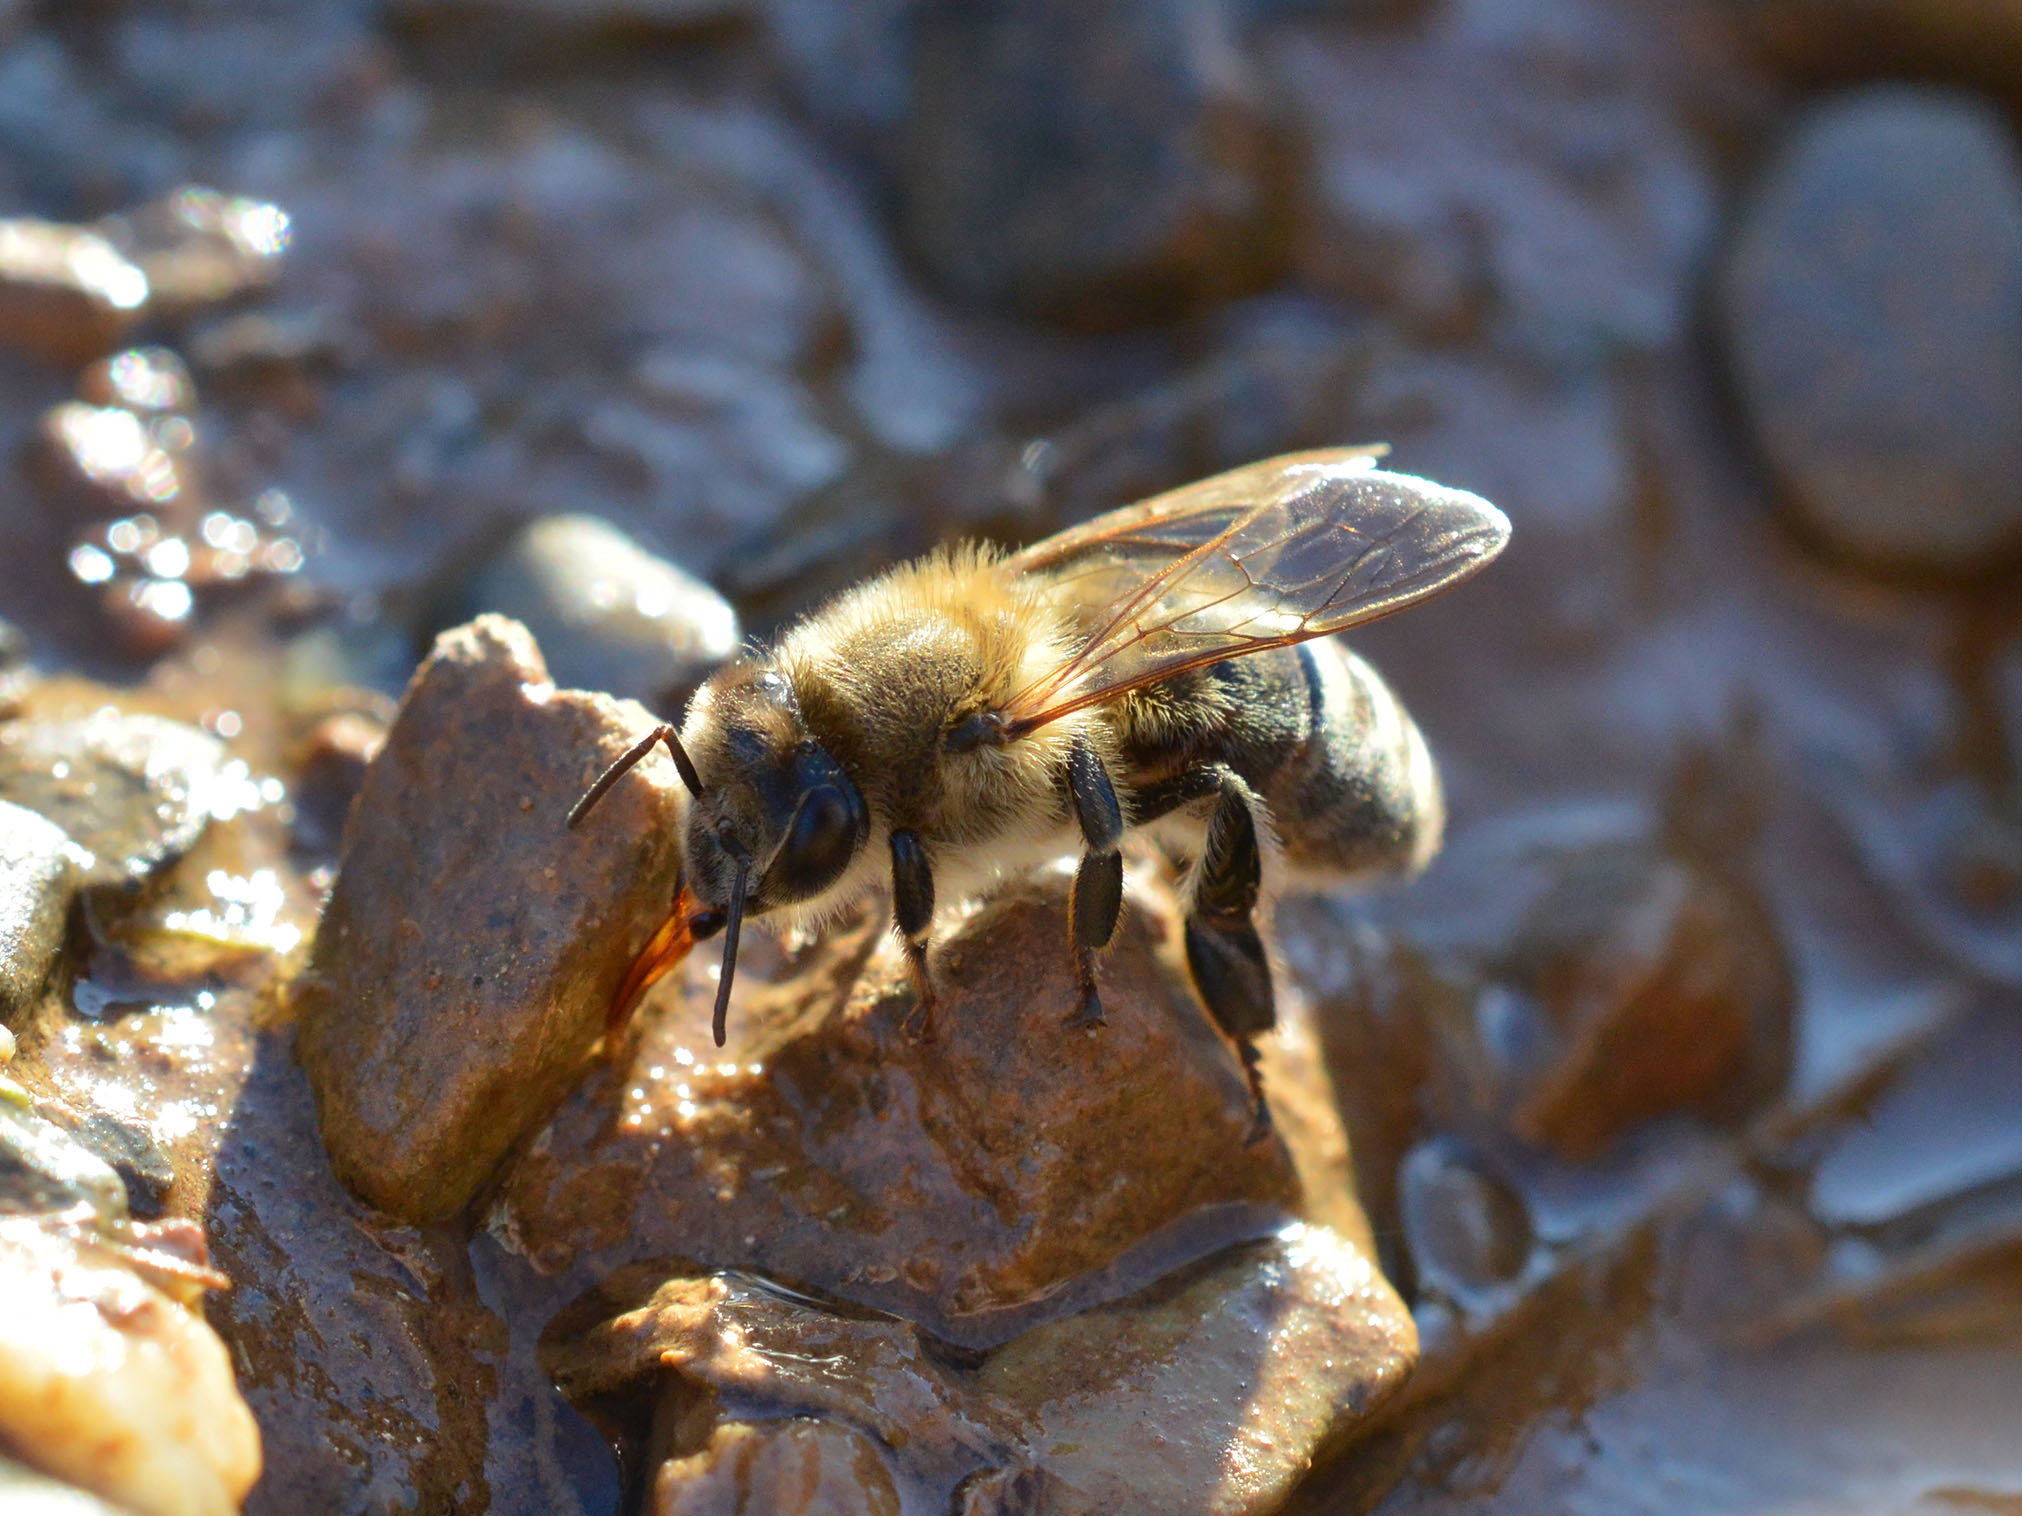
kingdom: Animalia
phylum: Arthropoda
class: Insecta
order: Hymenoptera
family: Apidae
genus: Apis
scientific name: Apis mellifera
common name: Honey bee
